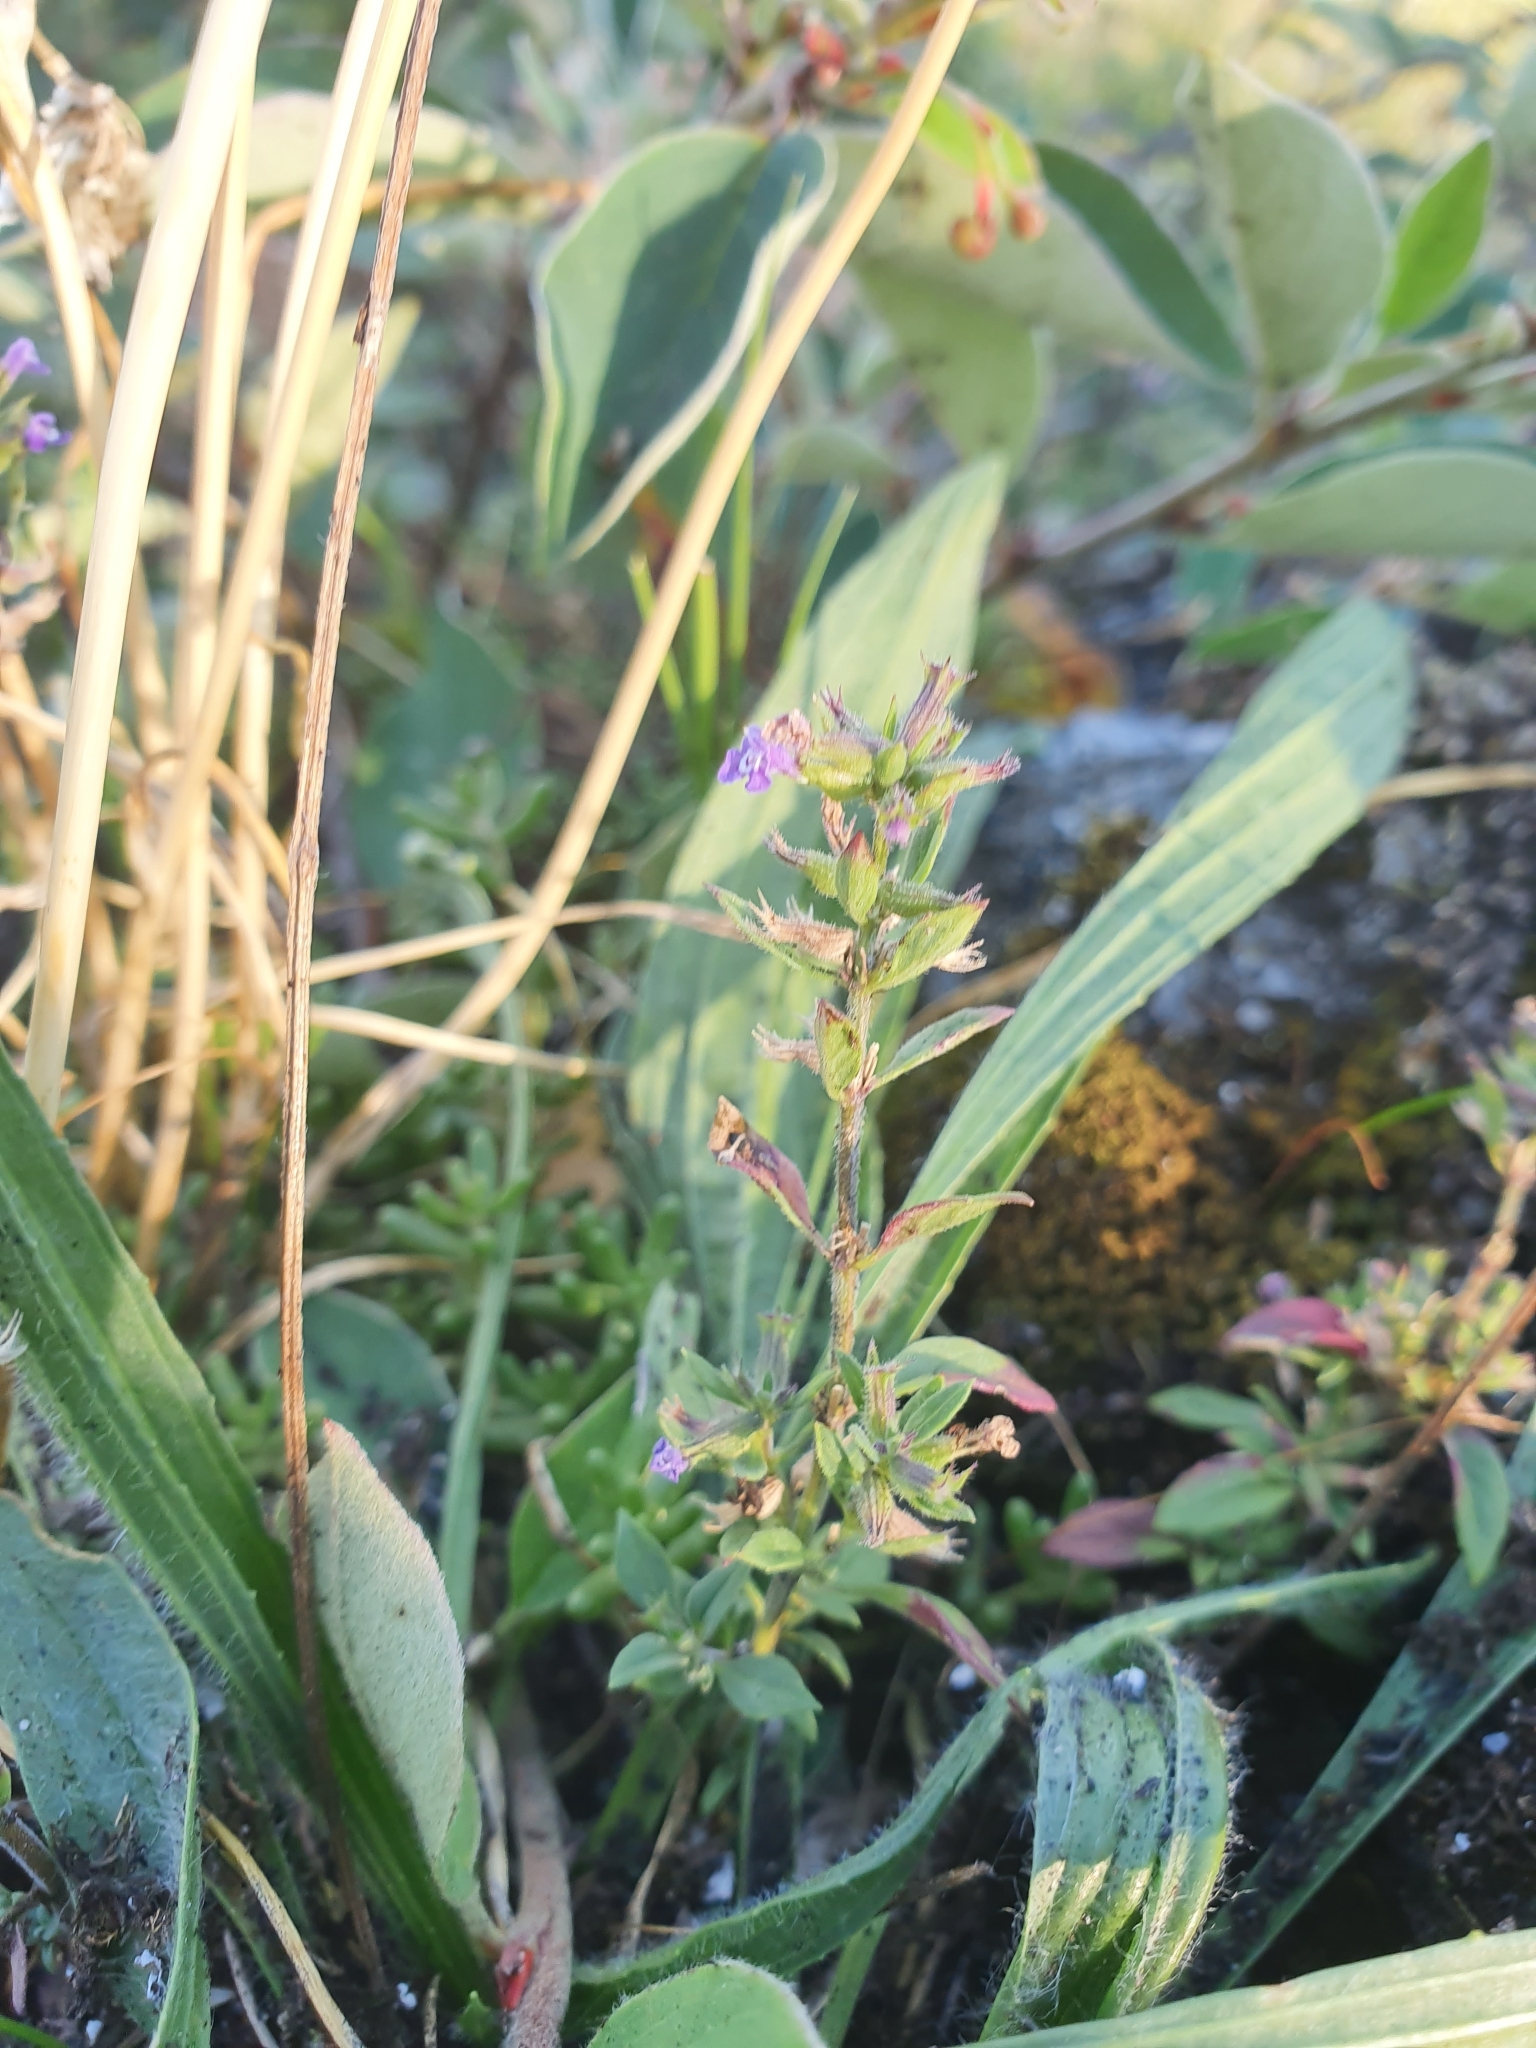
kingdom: Plantae
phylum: Tracheophyta
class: Magnoliopsida
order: Lamiales
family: Lamiaceae
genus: Clinopodium
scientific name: Clinopodium acinos
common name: Basil thyme
